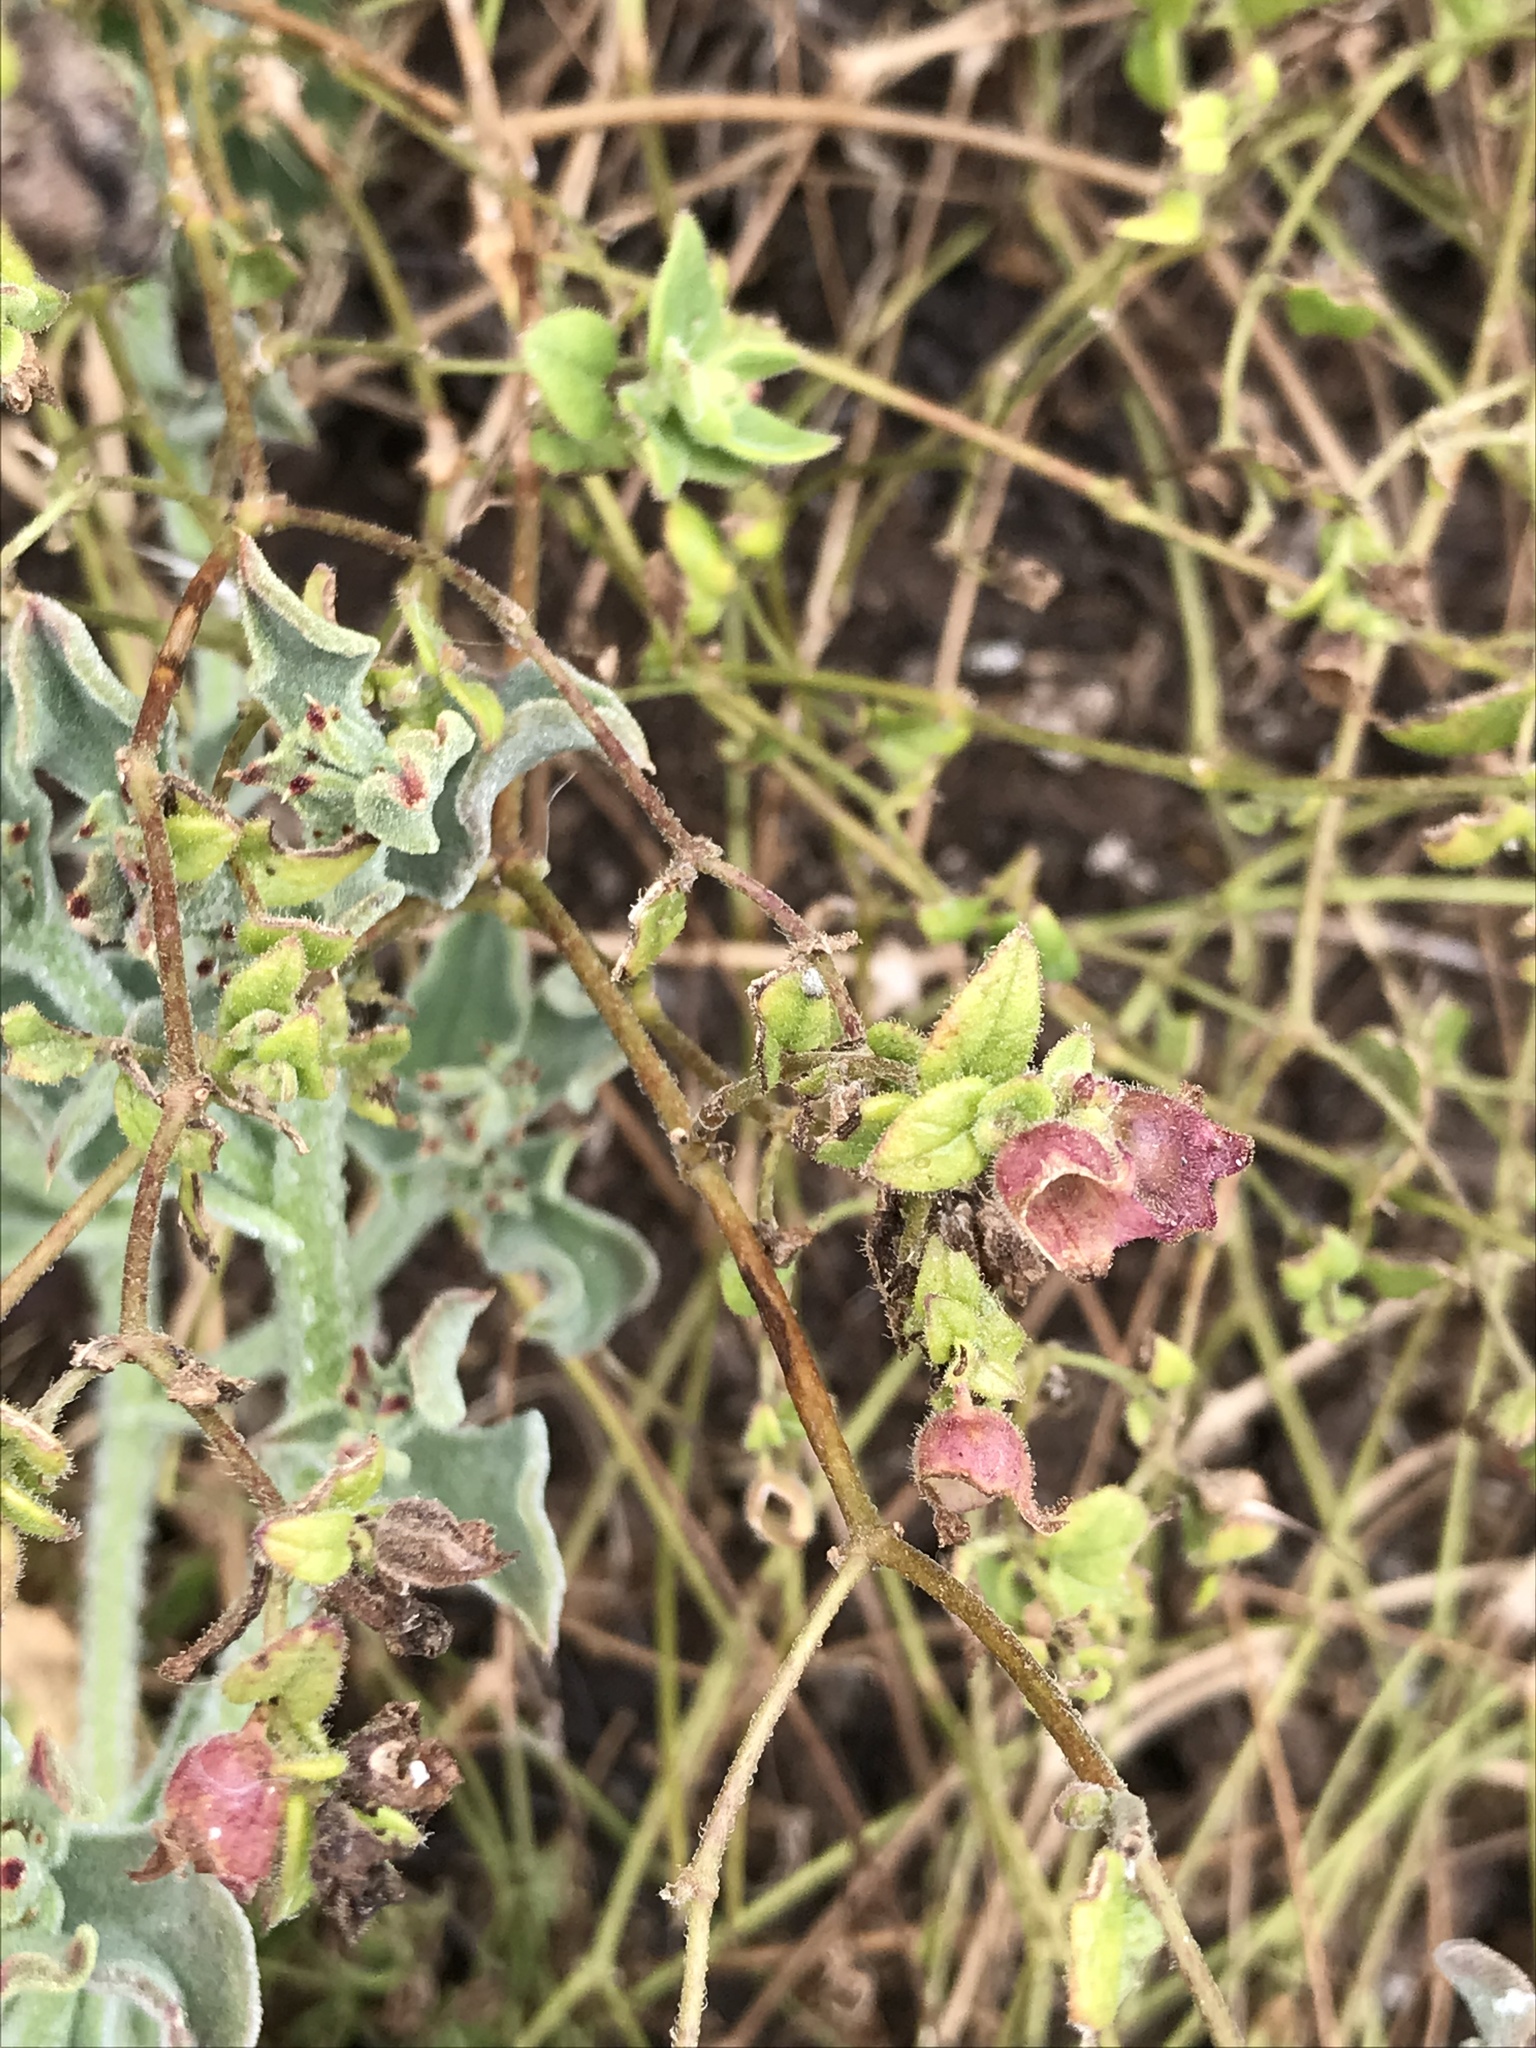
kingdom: Plantae
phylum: Tracheophyta
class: Magnoliopsida
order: Caryophyllales
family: Nyctaginaceae
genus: Mirabilis
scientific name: Mirabilis laevis
